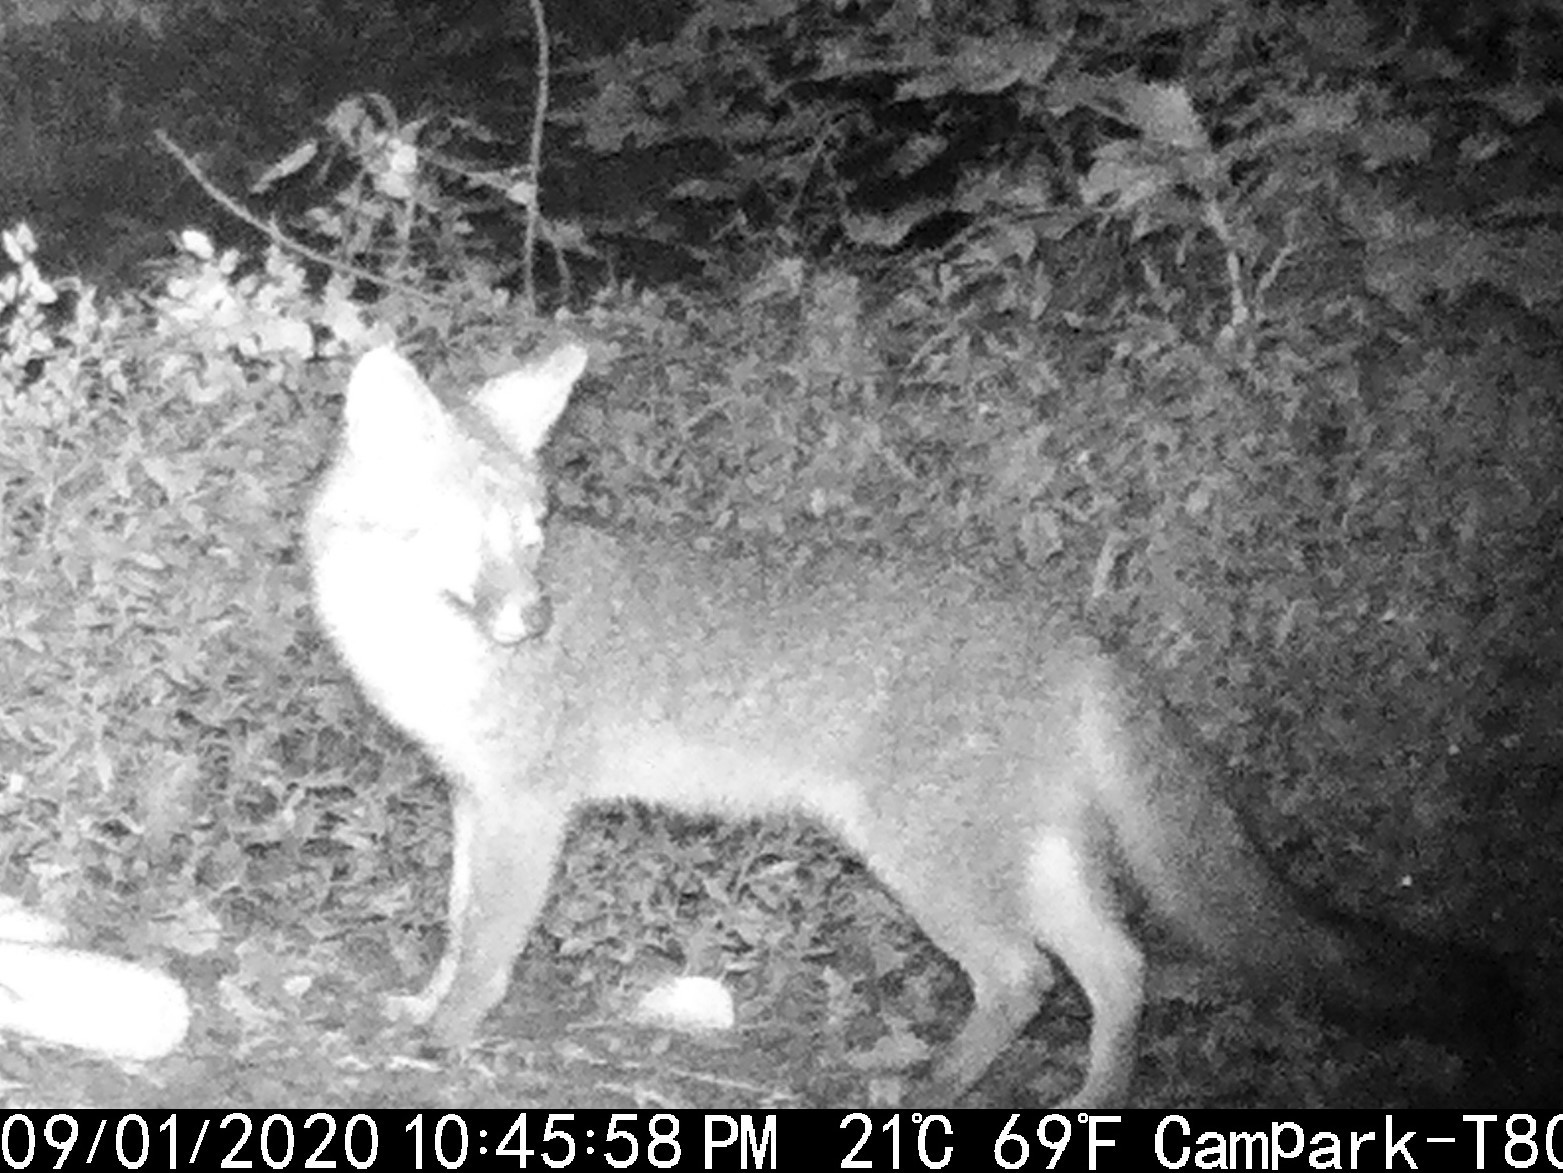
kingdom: Animalia
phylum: Chordata
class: Mammalia
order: Carnivora
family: Canidae
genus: Urocyon
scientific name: Urocyon cinereoargenteus
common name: Gray fox
